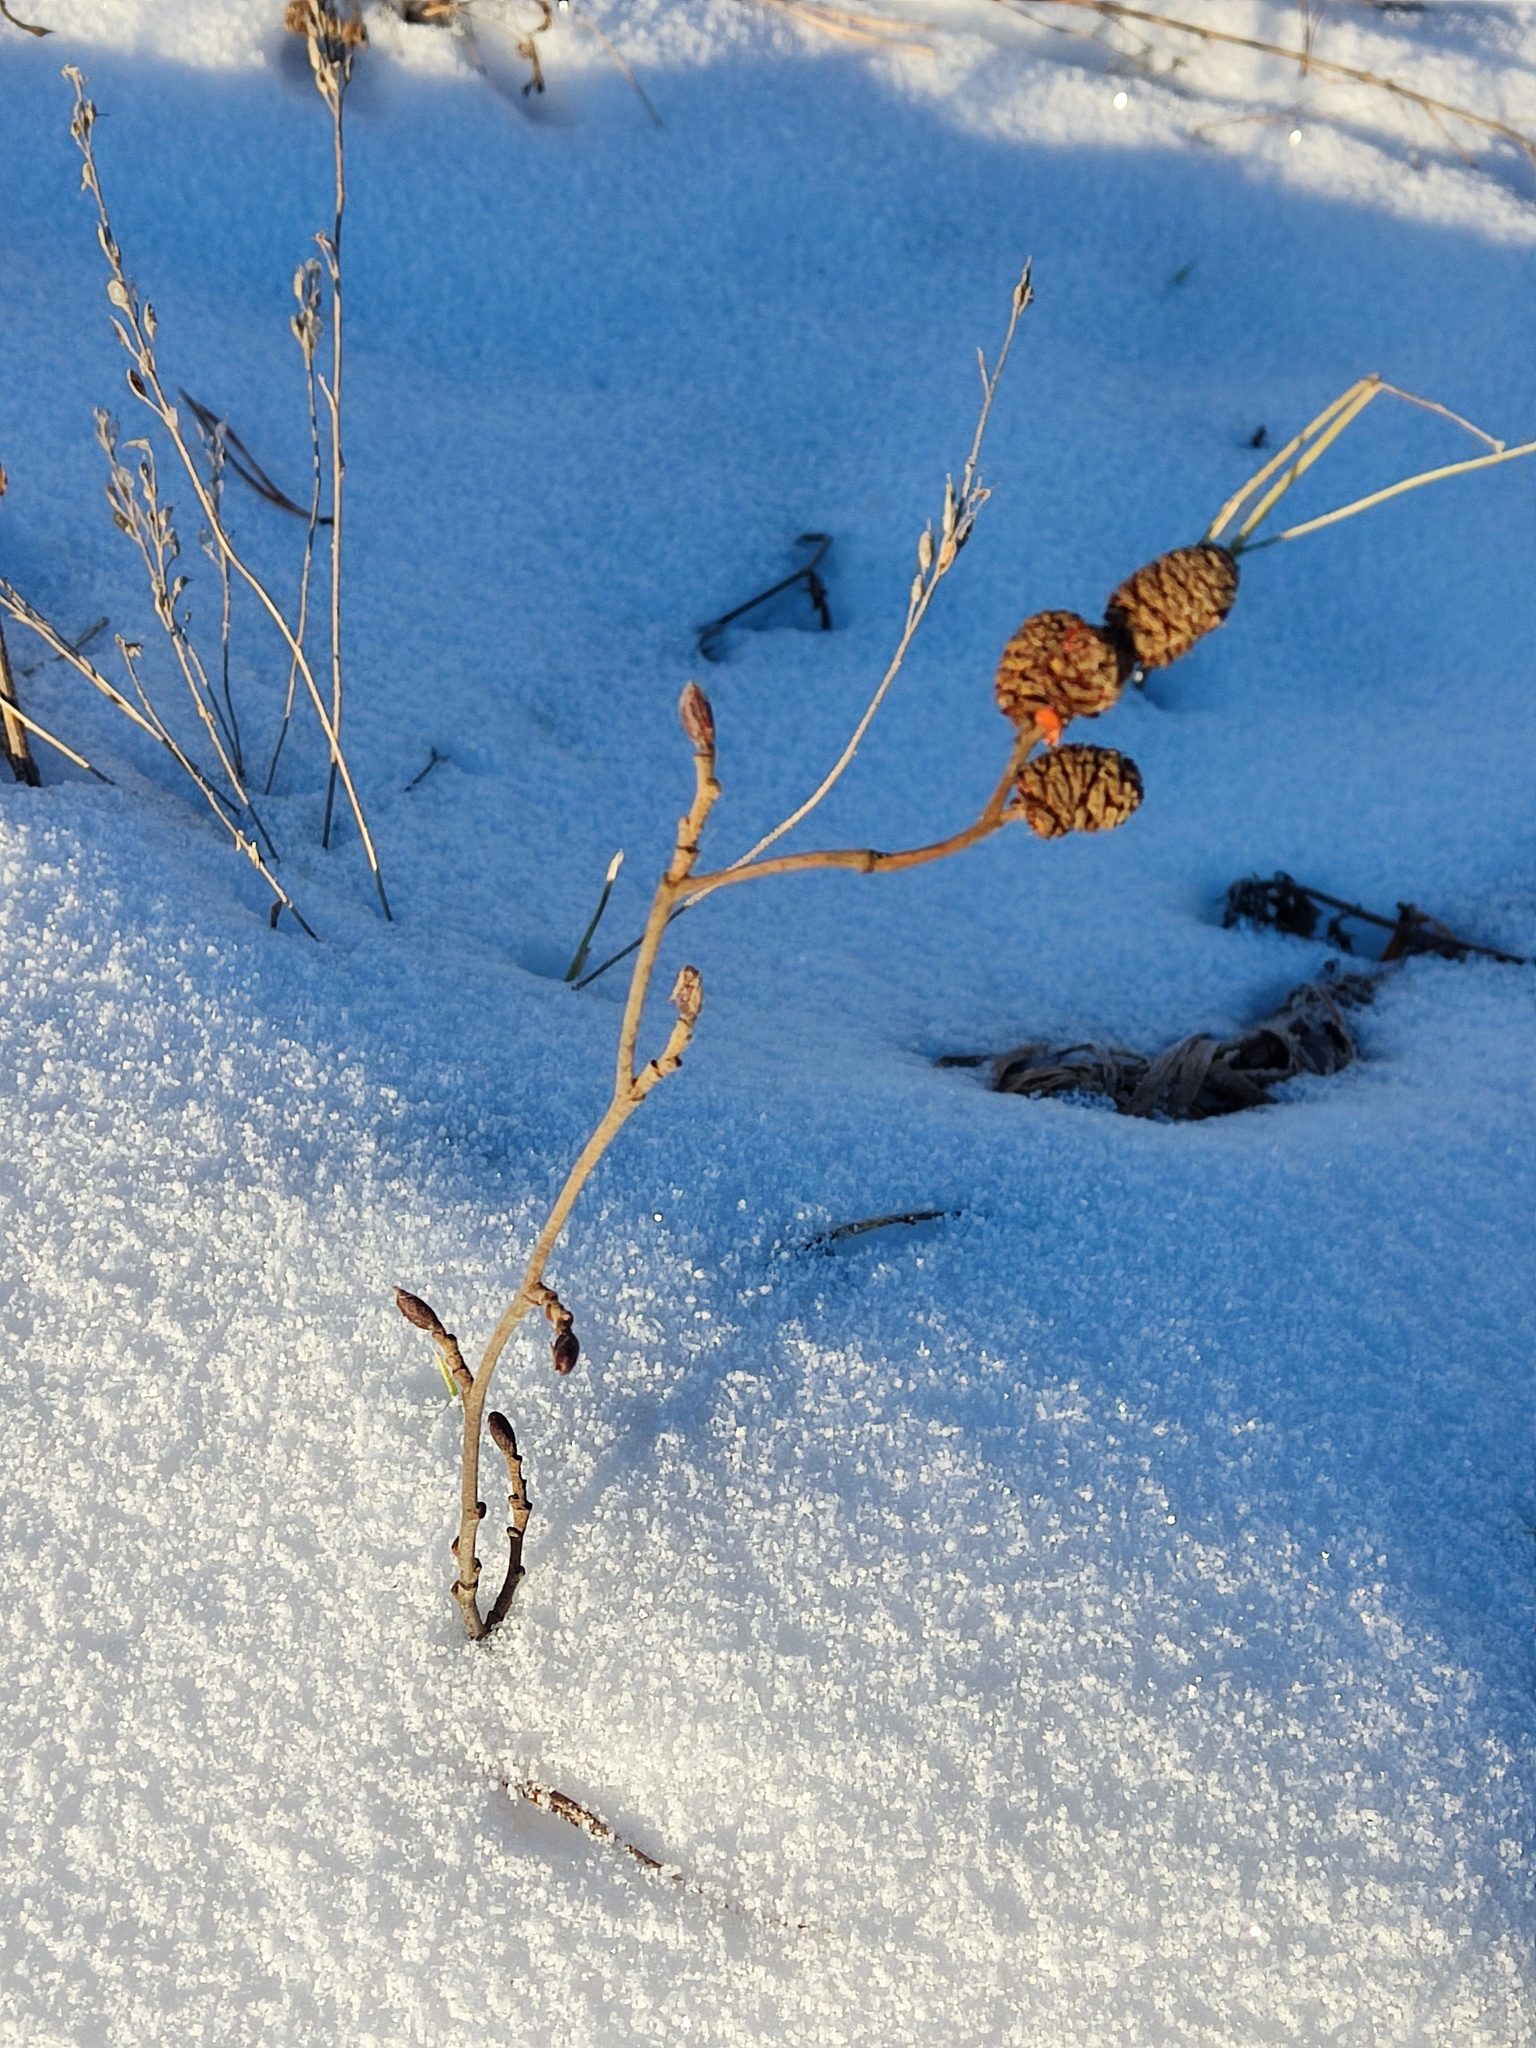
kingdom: Plantae
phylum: Tracheophyta
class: Magnoliopsida
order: Fagales
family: Betulaceae
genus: Alnus
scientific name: Alnus incana
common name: Grey alder
